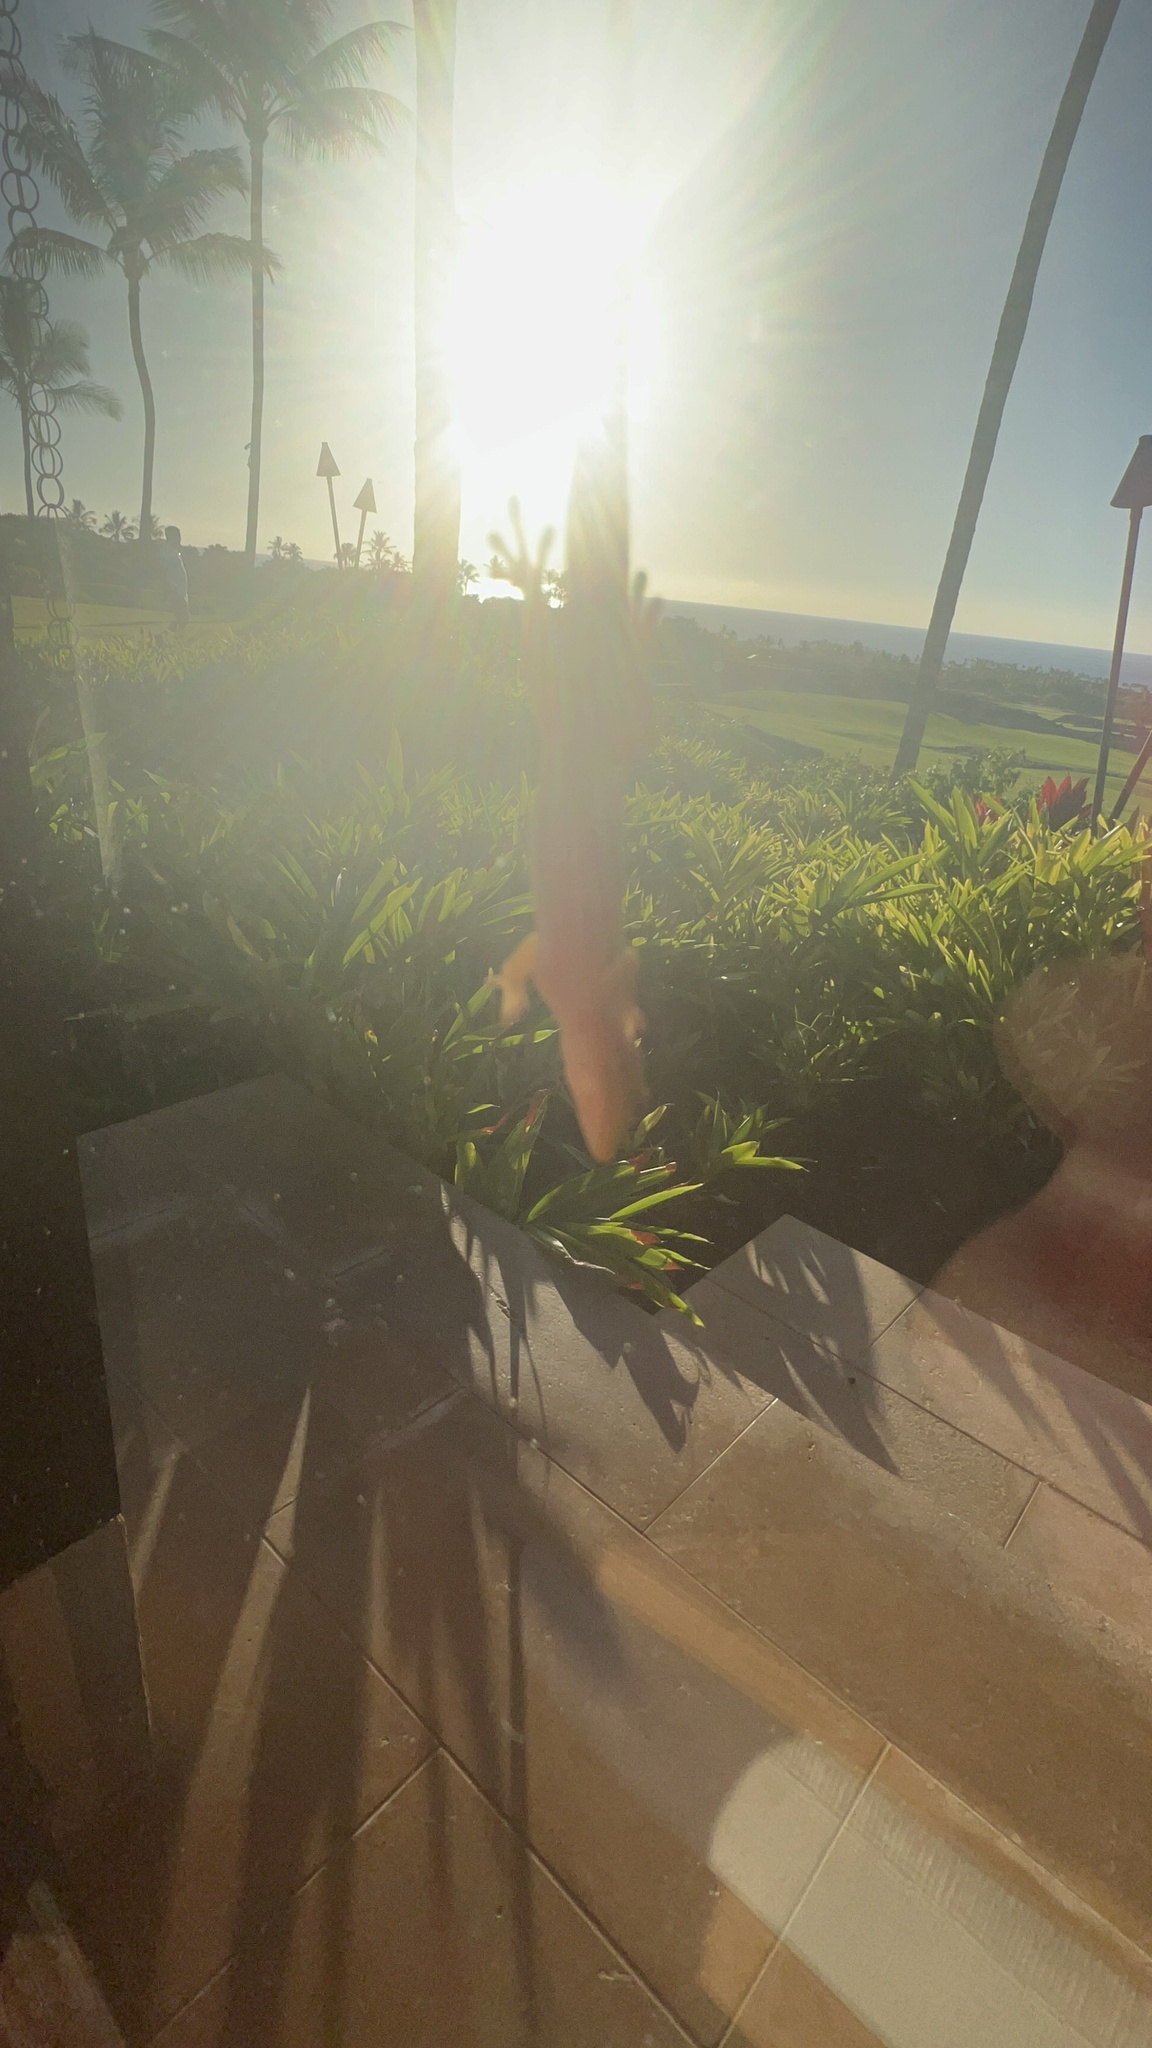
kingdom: Animalia
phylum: Chordata
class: Squamata
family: Gekkonidae
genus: Phelsuma
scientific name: Phelsuma laticauda
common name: Gold dust day gecko
